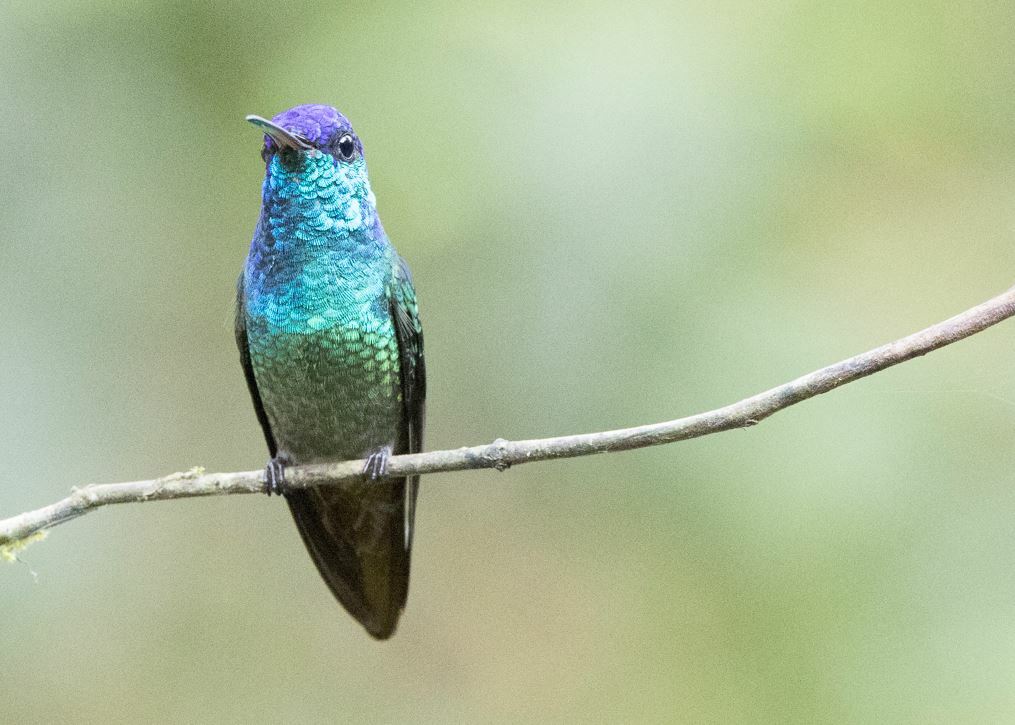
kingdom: Animalia
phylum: Chordata
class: Aves
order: Apodiformes
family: Trochilidae
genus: Chrysuronia
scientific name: Chrysuronia oenone
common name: Golden-tailed sapphire
